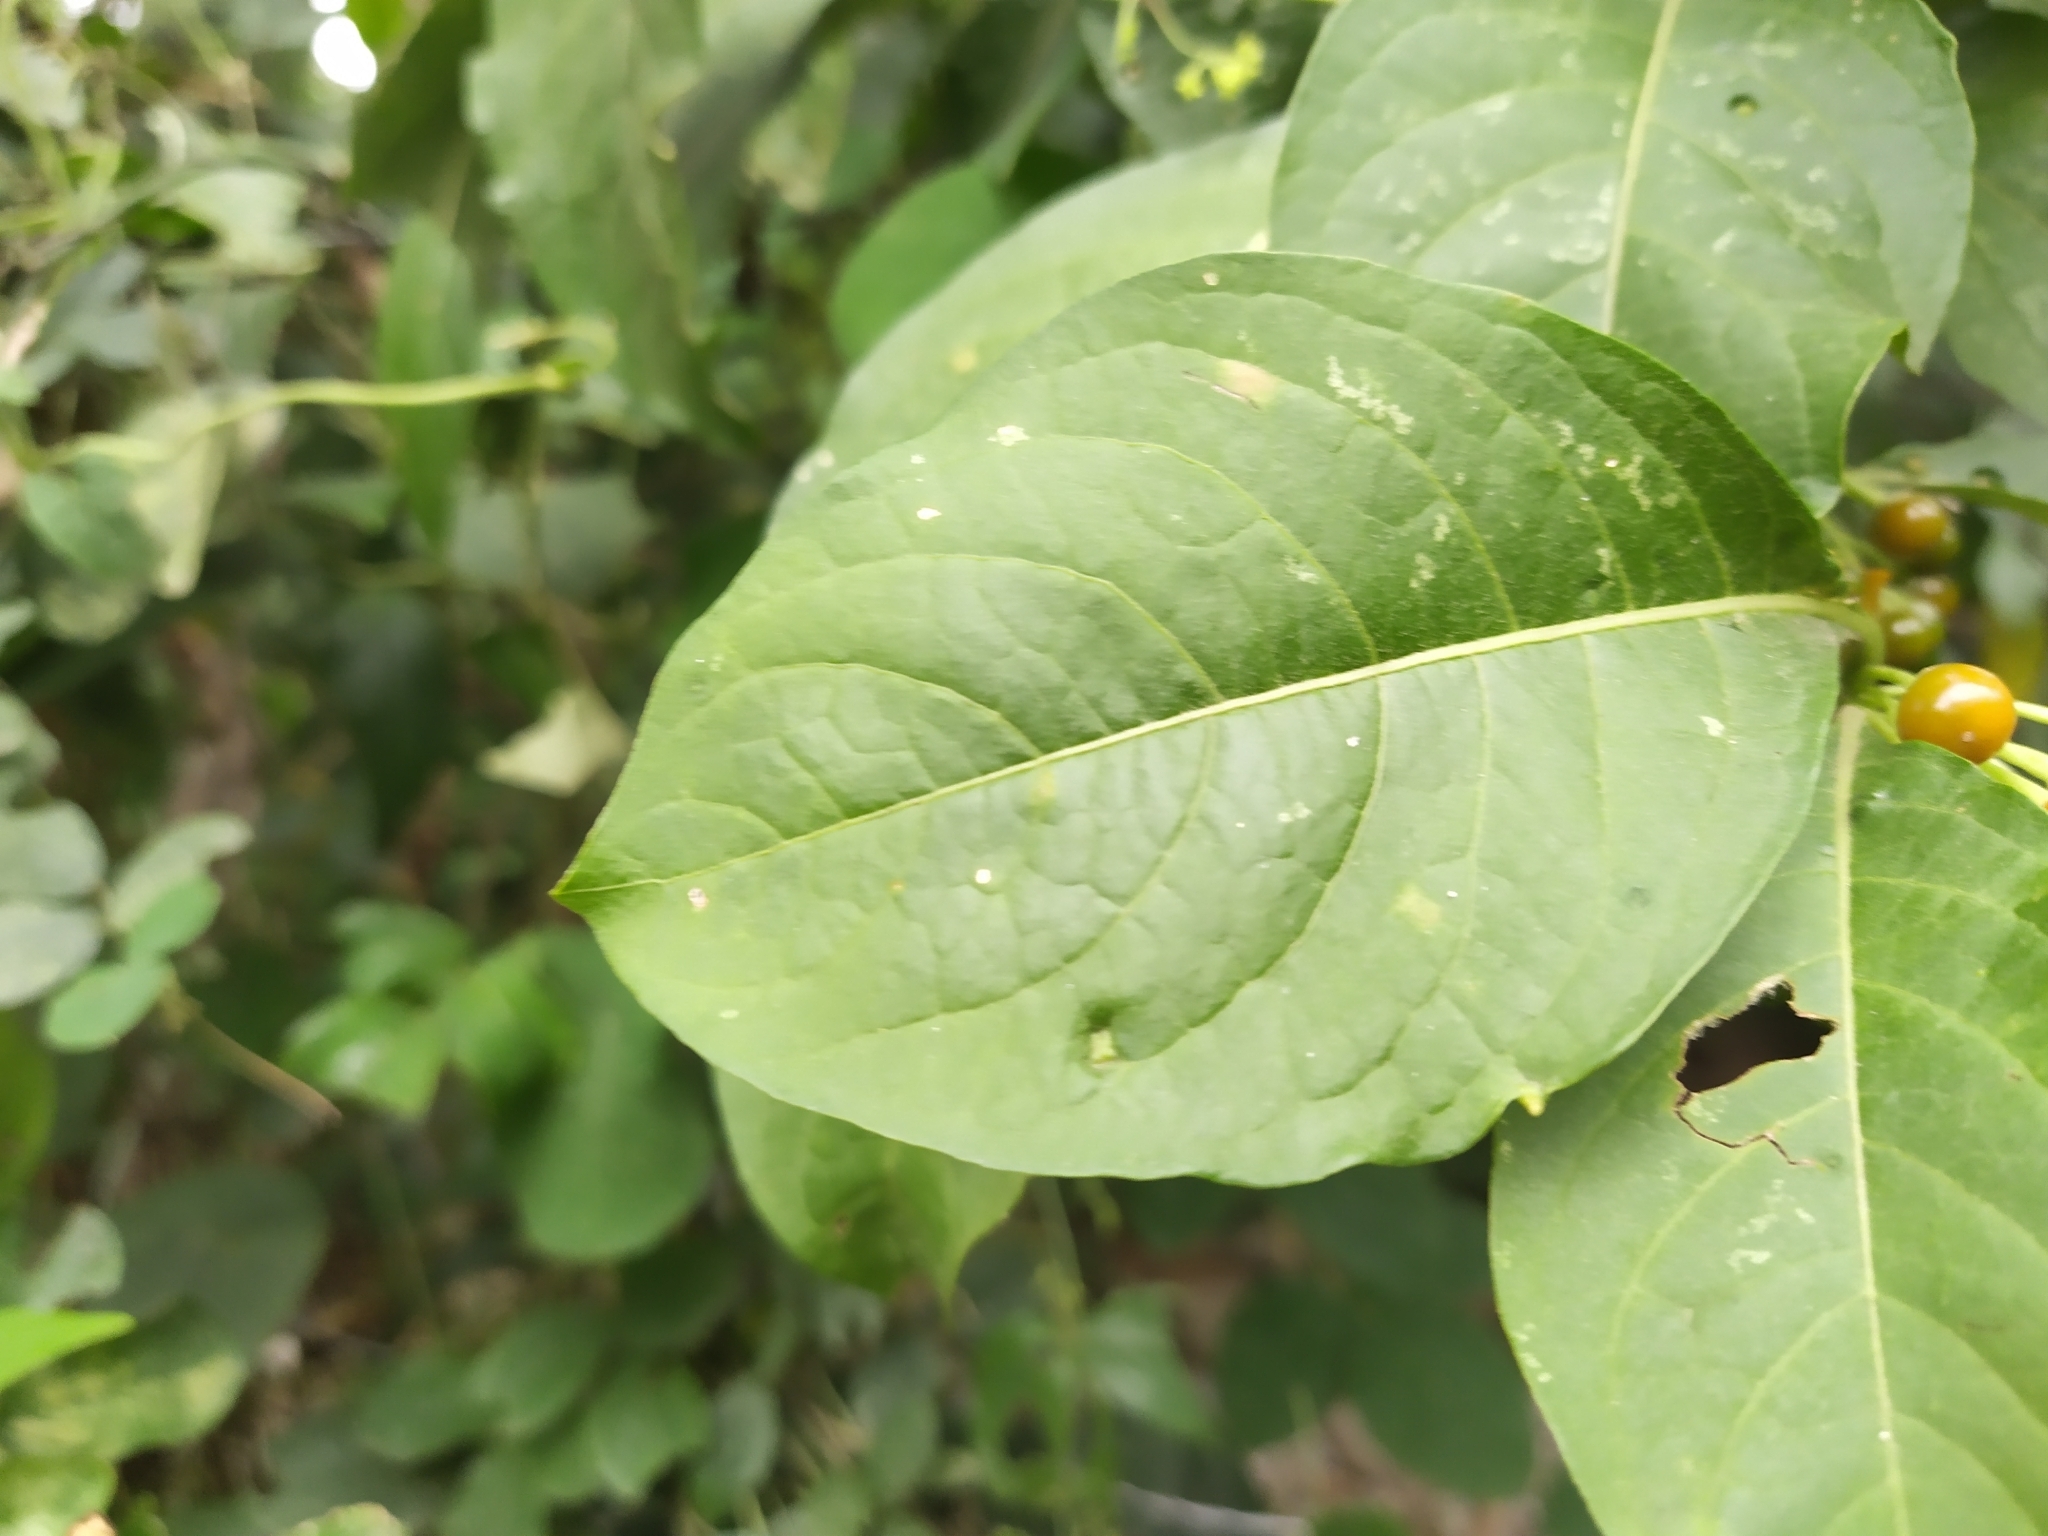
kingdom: Plantae
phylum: Tracheophyta
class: Magnoliopsida
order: Solanales
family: Solanaceae
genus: Iochroma
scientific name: Iochroma arborescens
